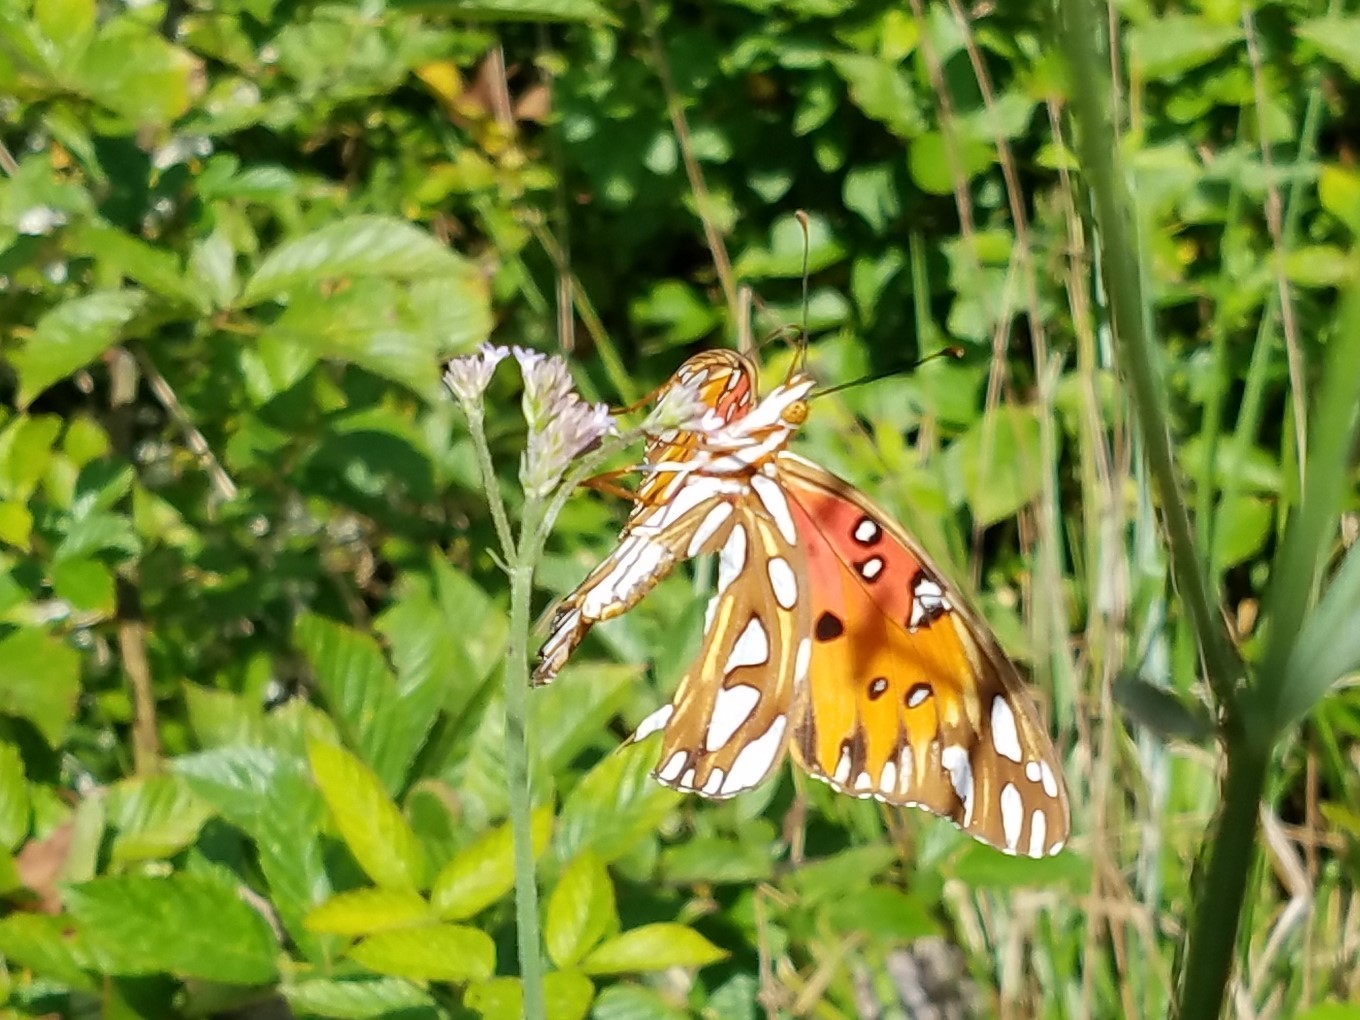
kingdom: Animalia
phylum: Arthropoda
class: Insecta
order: Lepidoptera
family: Nymphalidae
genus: Dione
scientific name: Dione vanillae
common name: Gulf fritillary
